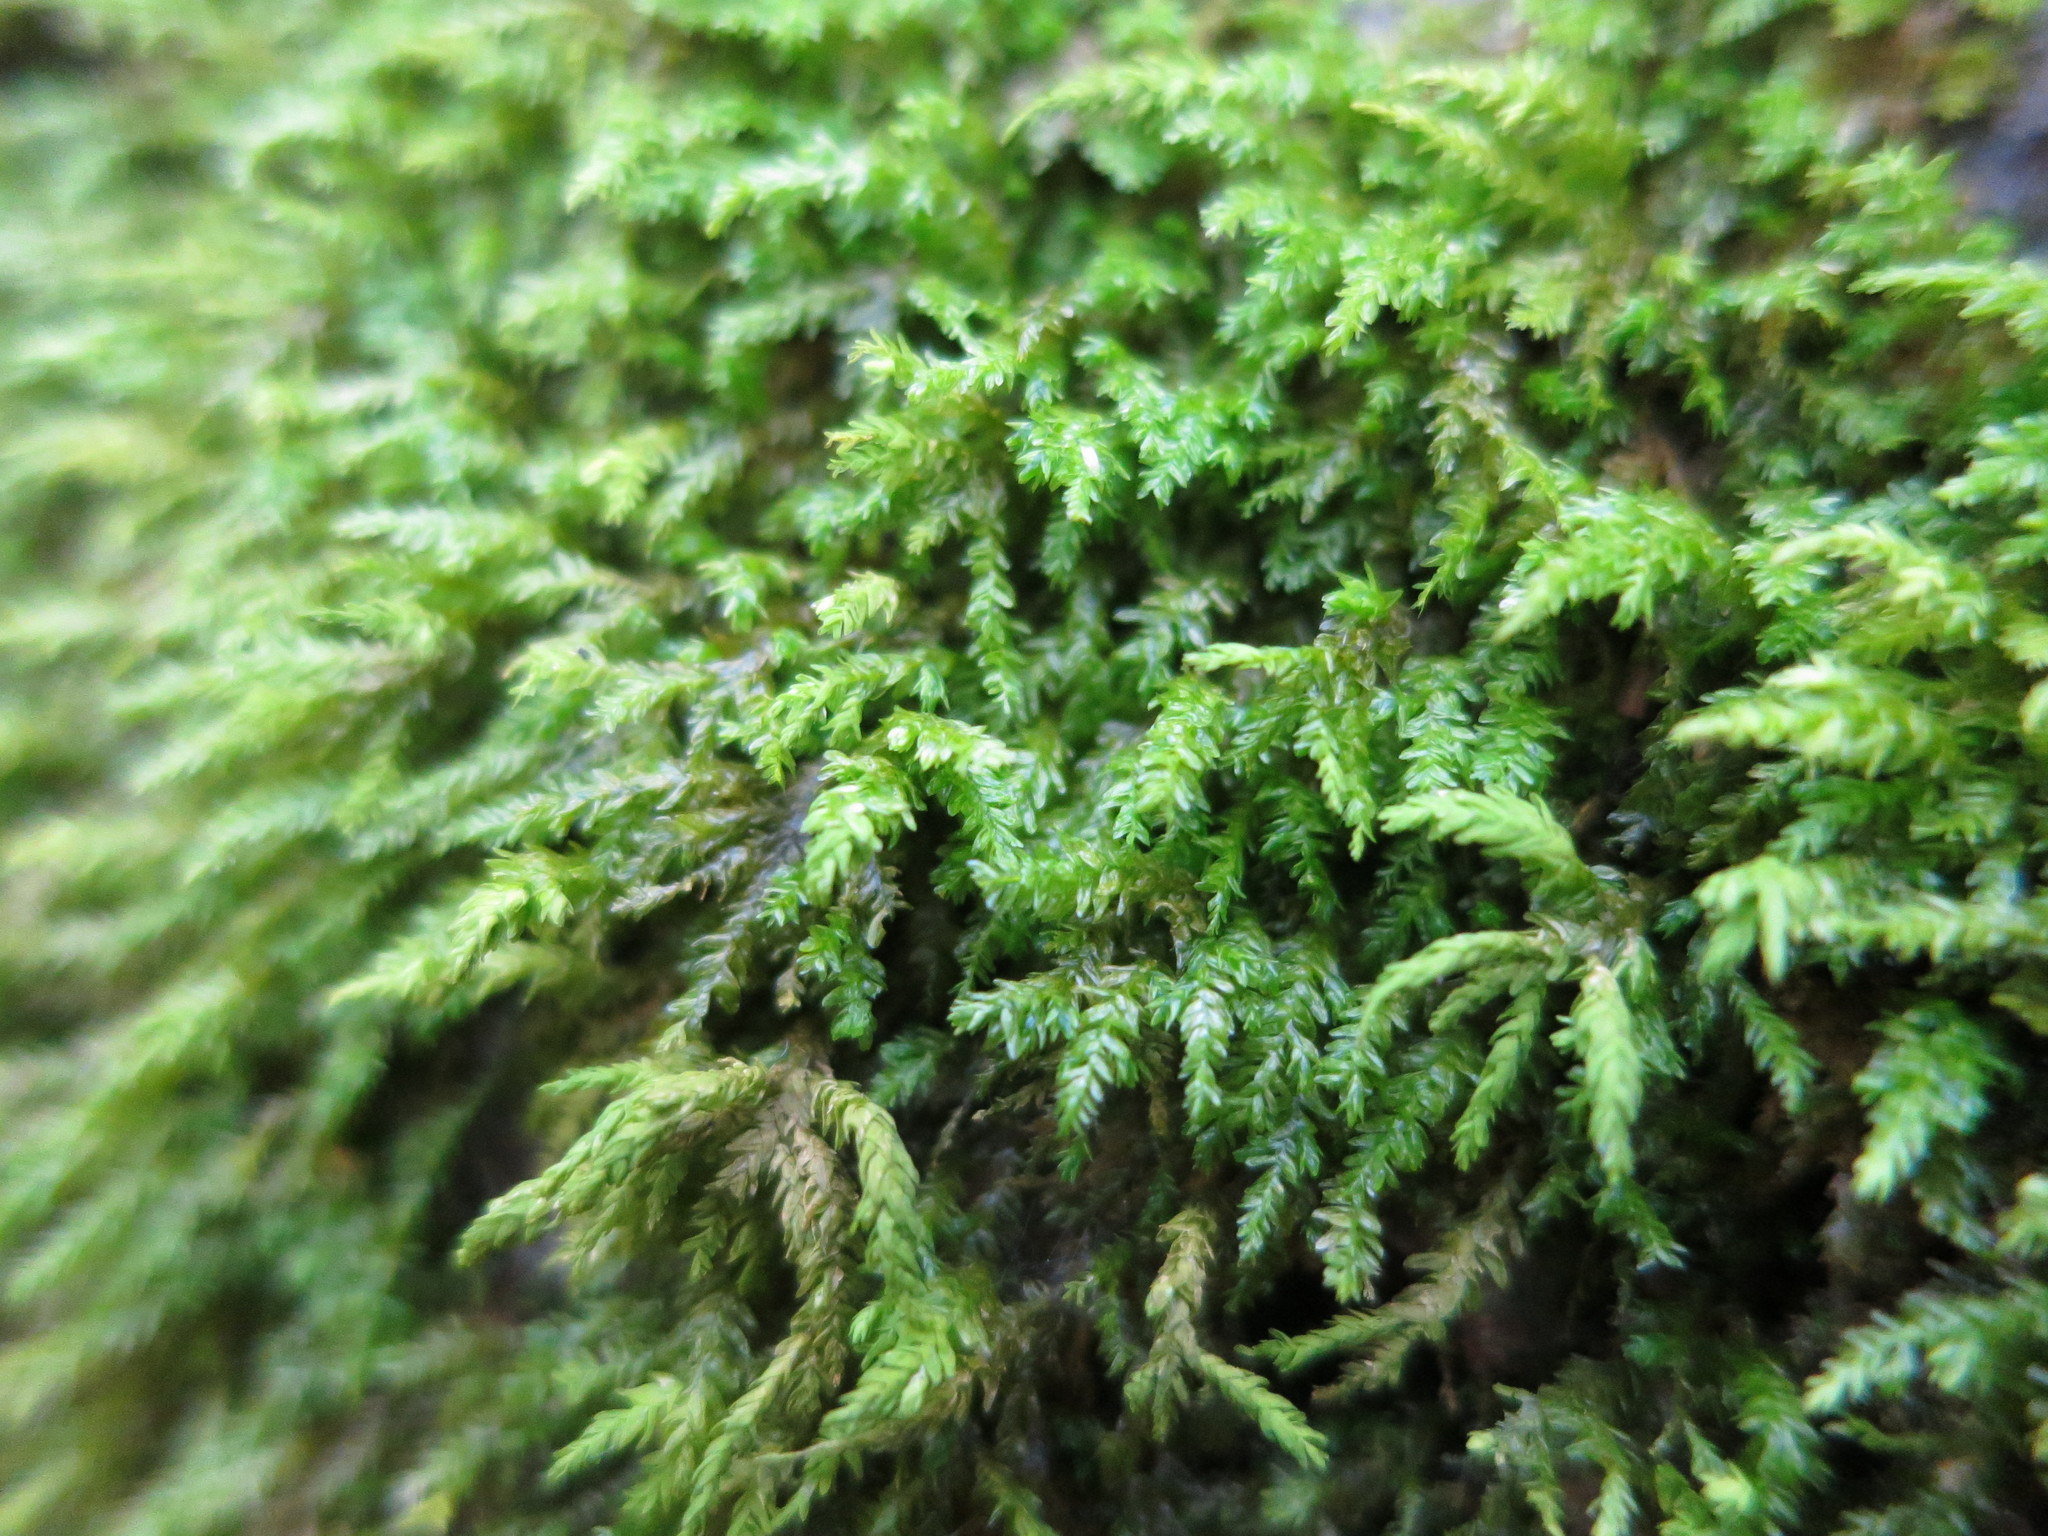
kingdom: Plantae
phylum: Bryophyta
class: Bryopsida
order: Hypnales
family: Neckeraceae
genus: Pseudanomodon
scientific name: Pseudanomodon attenuatus
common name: Tree-skirt moss
